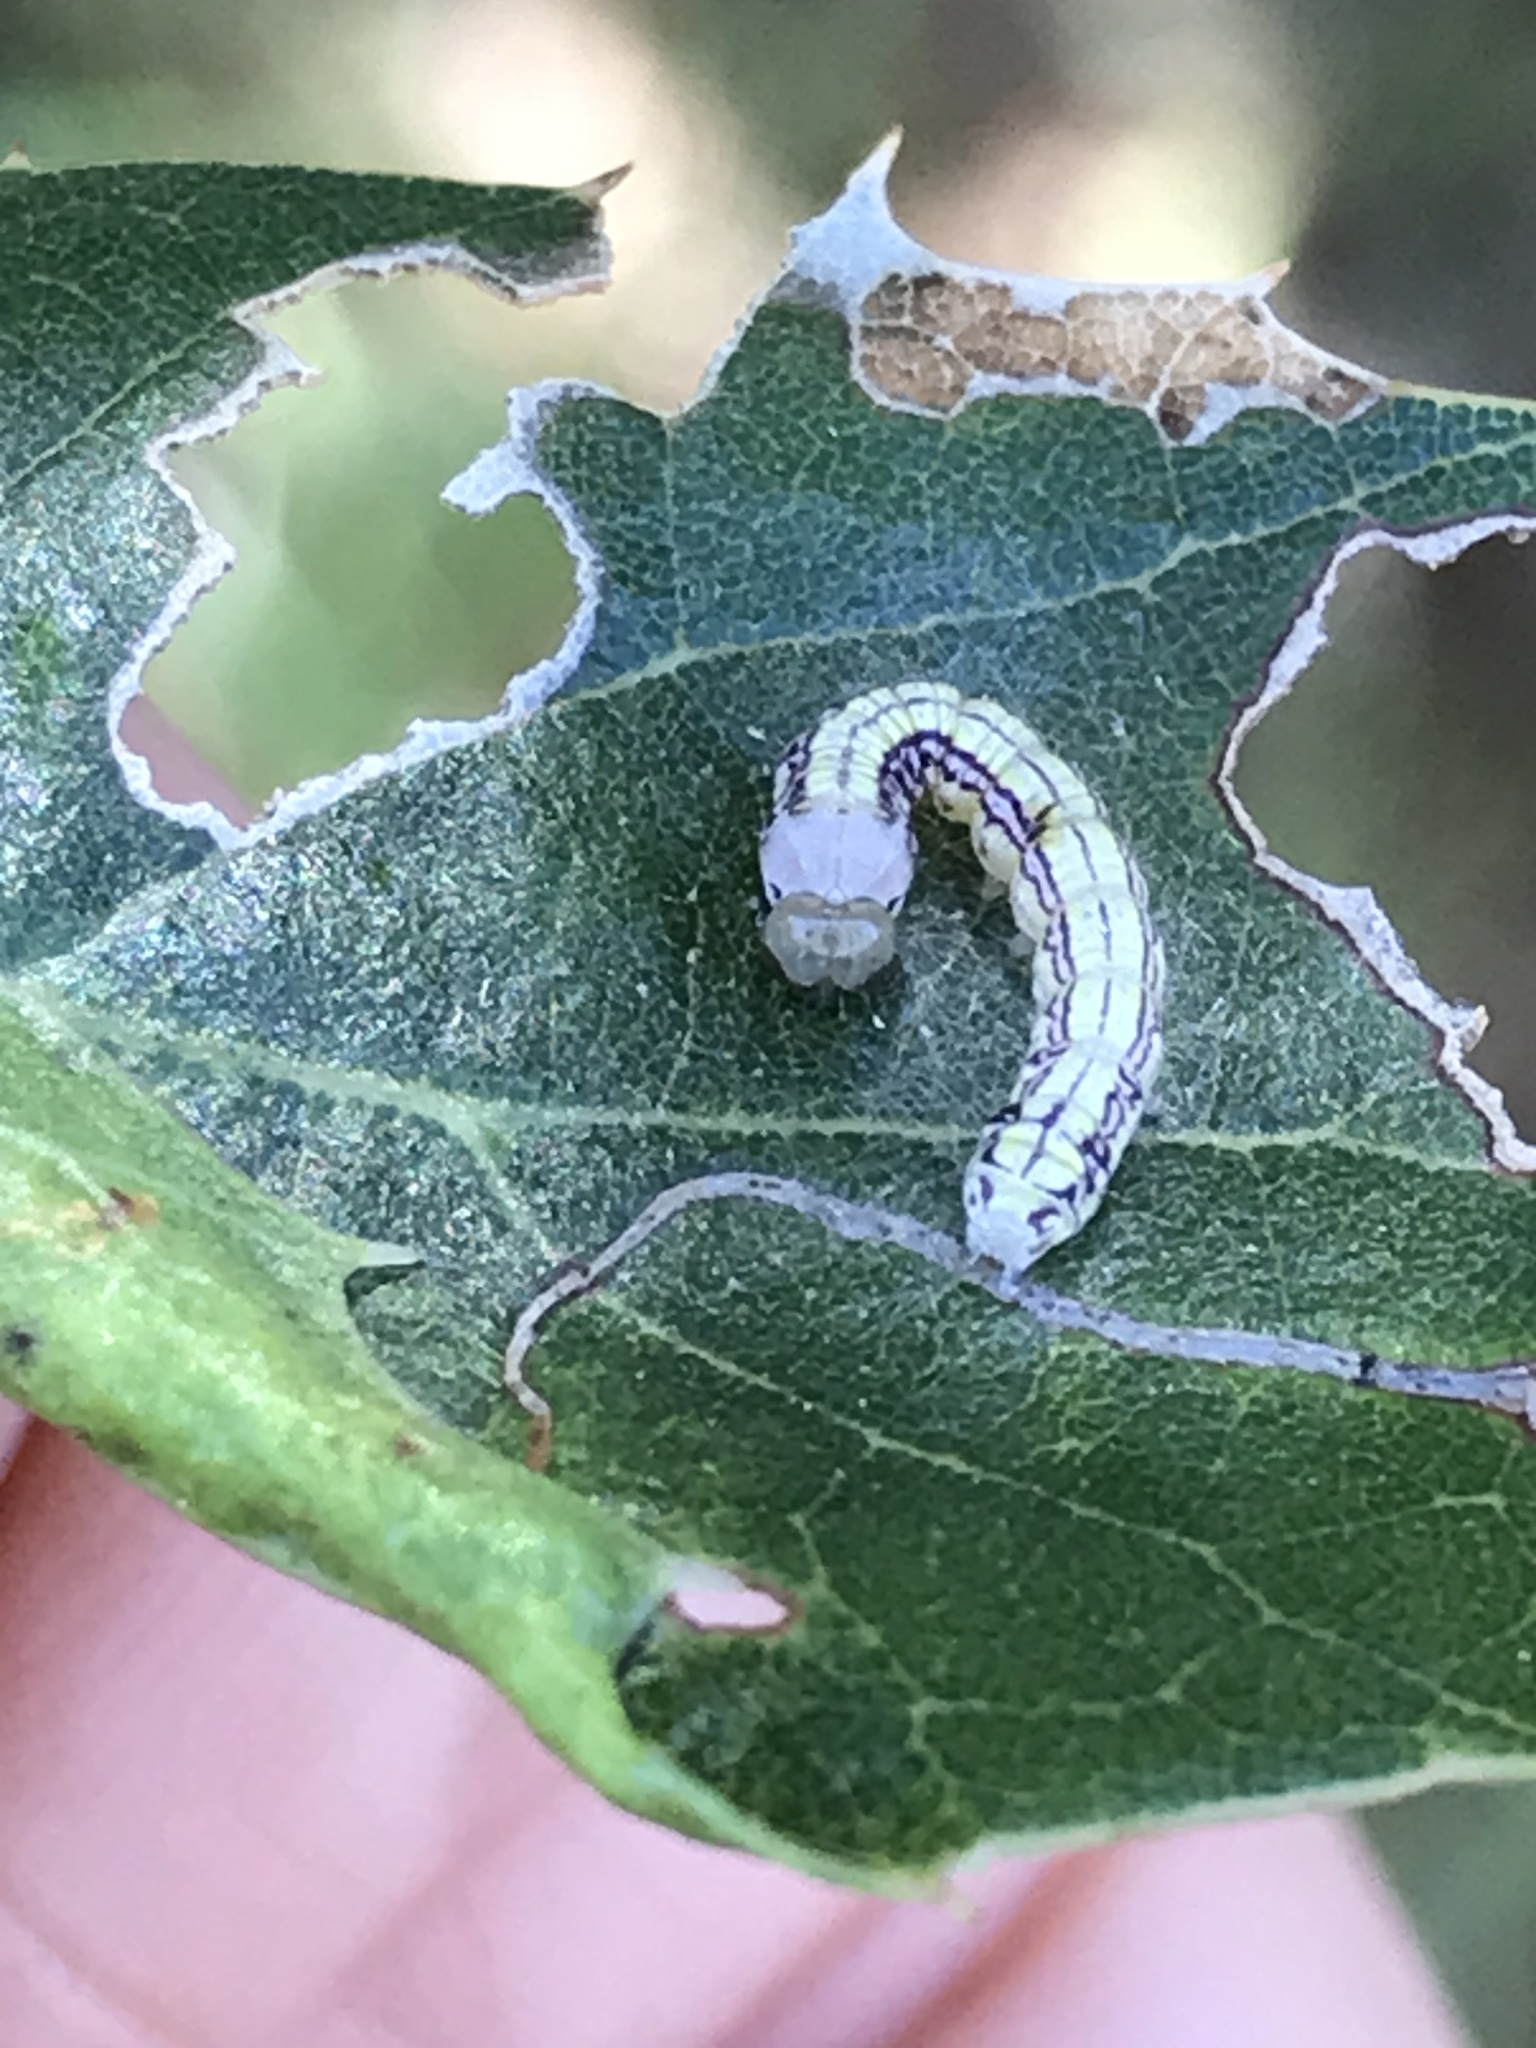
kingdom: Animalia
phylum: Arthropoda
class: Insecta
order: Lepidoptera
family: Notodontidae
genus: Phryganidia
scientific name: Phryganidia californica
